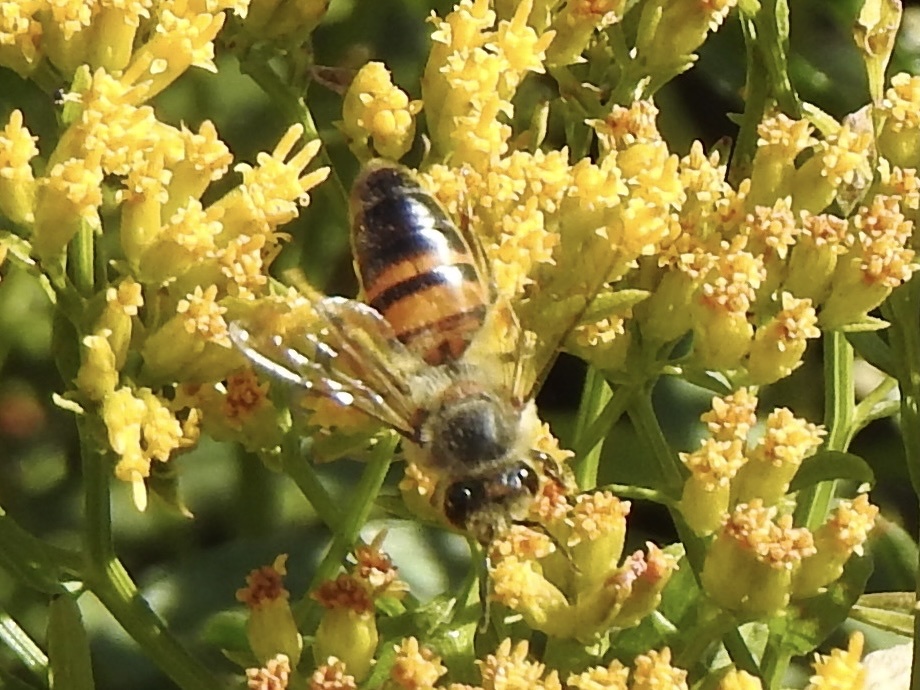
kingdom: Animalia
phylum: Arthropoda
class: Insecta
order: Hymenoptera
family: Apidae
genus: Apis
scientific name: Apis mellifera
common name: Honey bee
